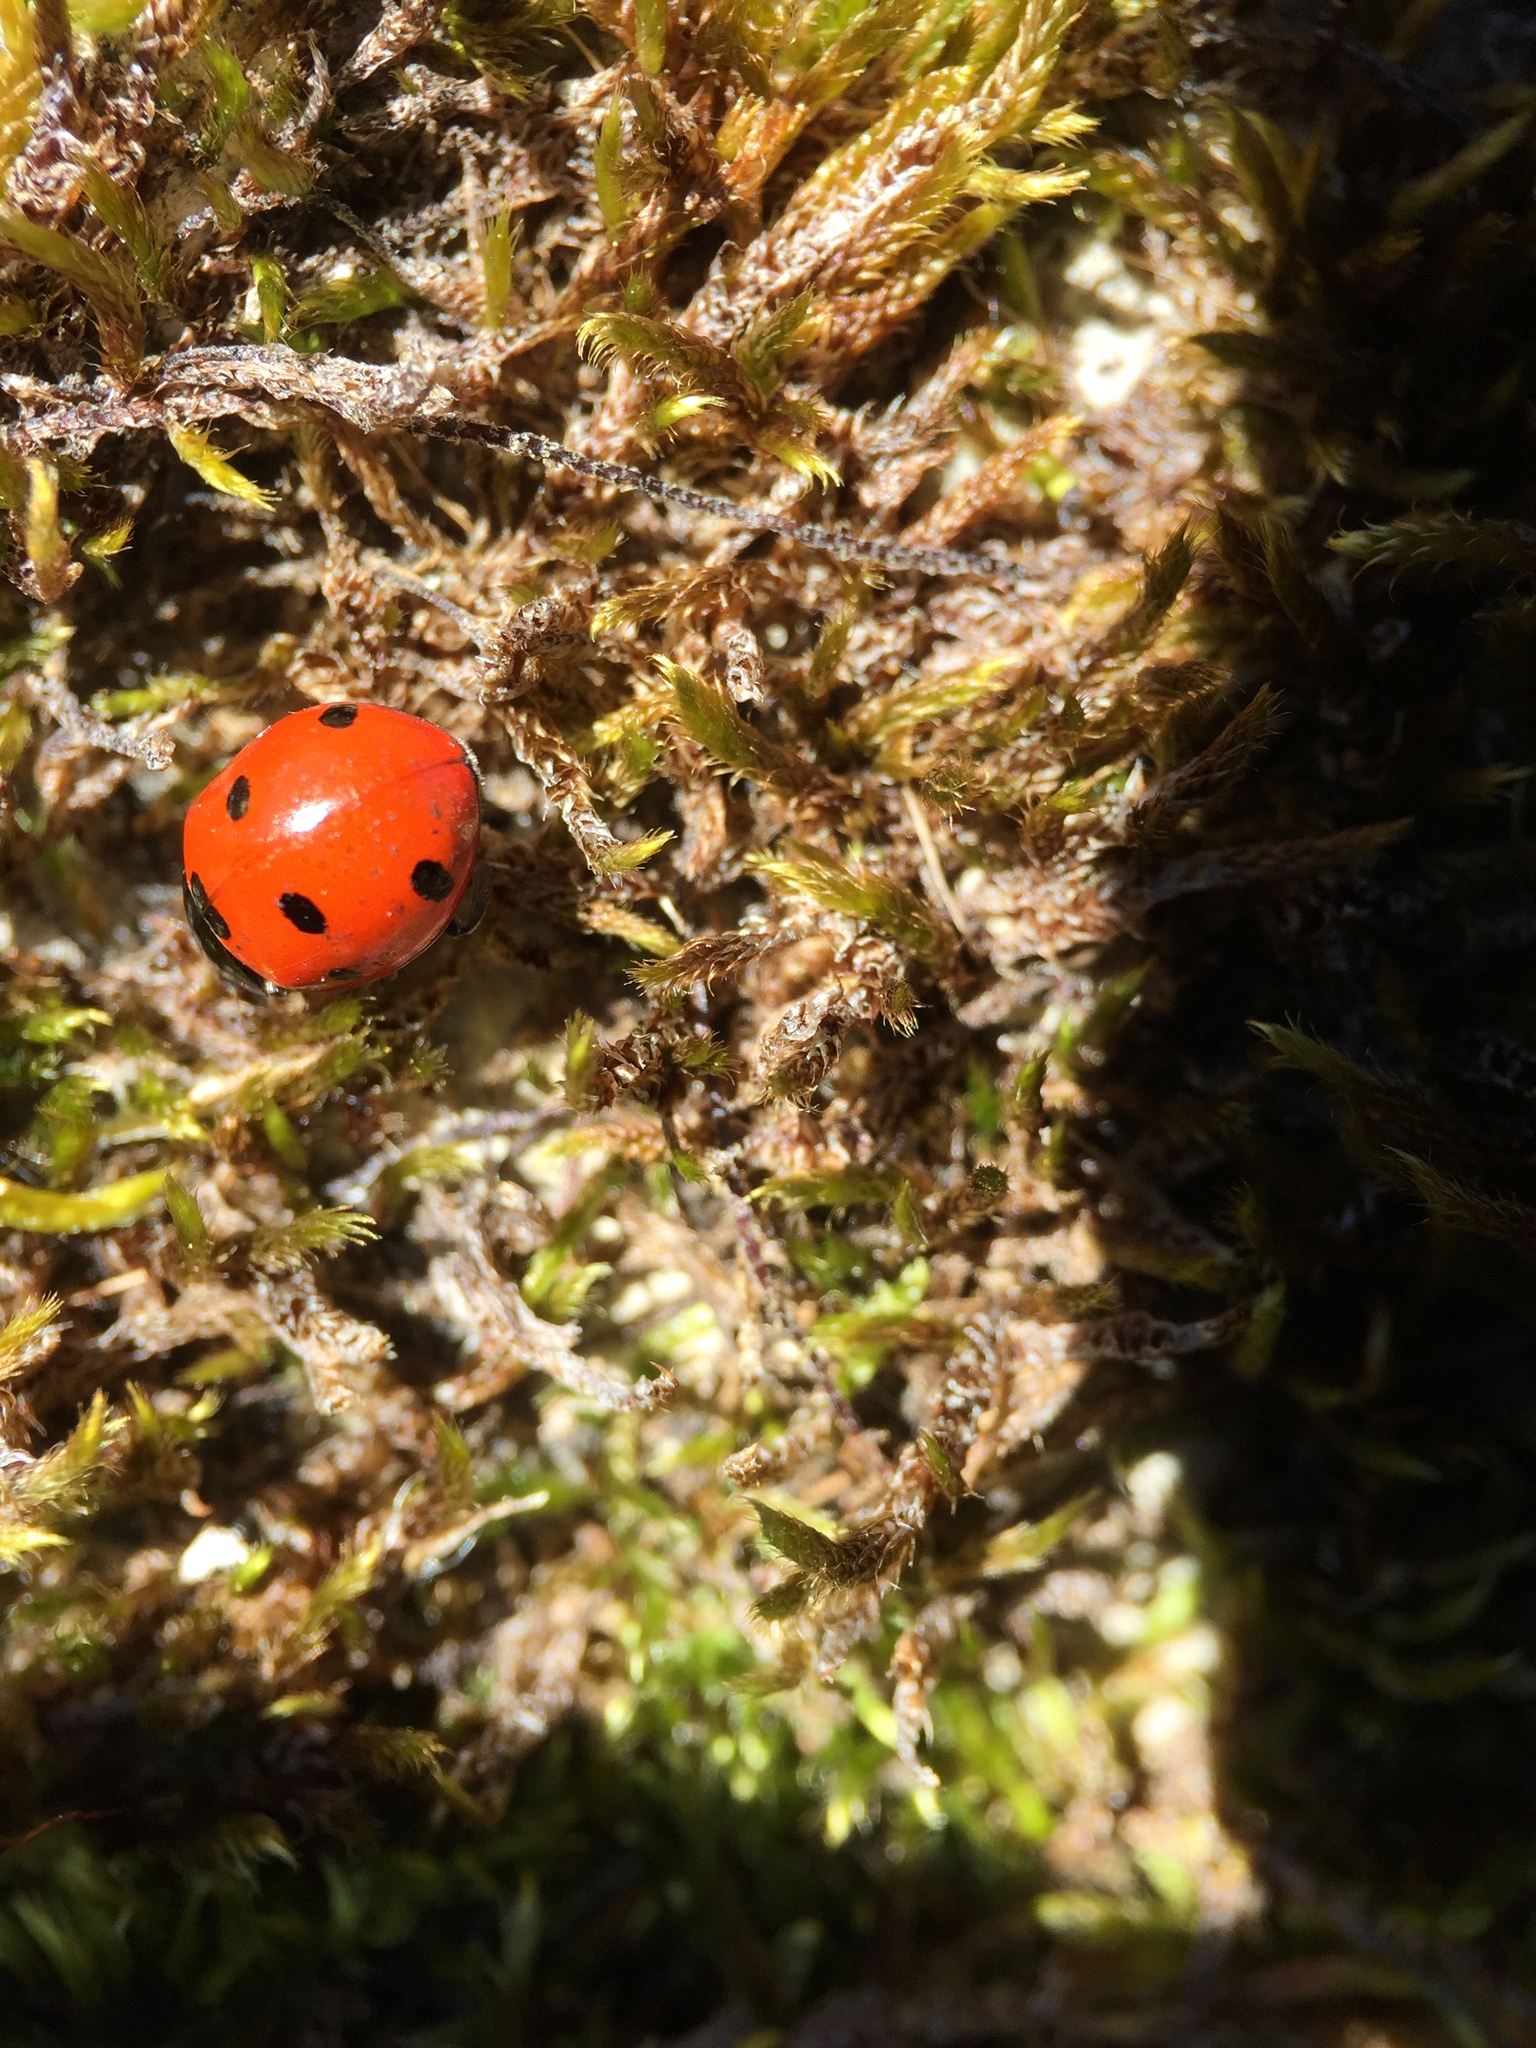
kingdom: Animalia
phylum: Arthropoda
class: Insecta
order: Coleoptera
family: Coccinellidae
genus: Coccinella
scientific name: Coccinella septempunctata
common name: Sevenspotted lady beetle
